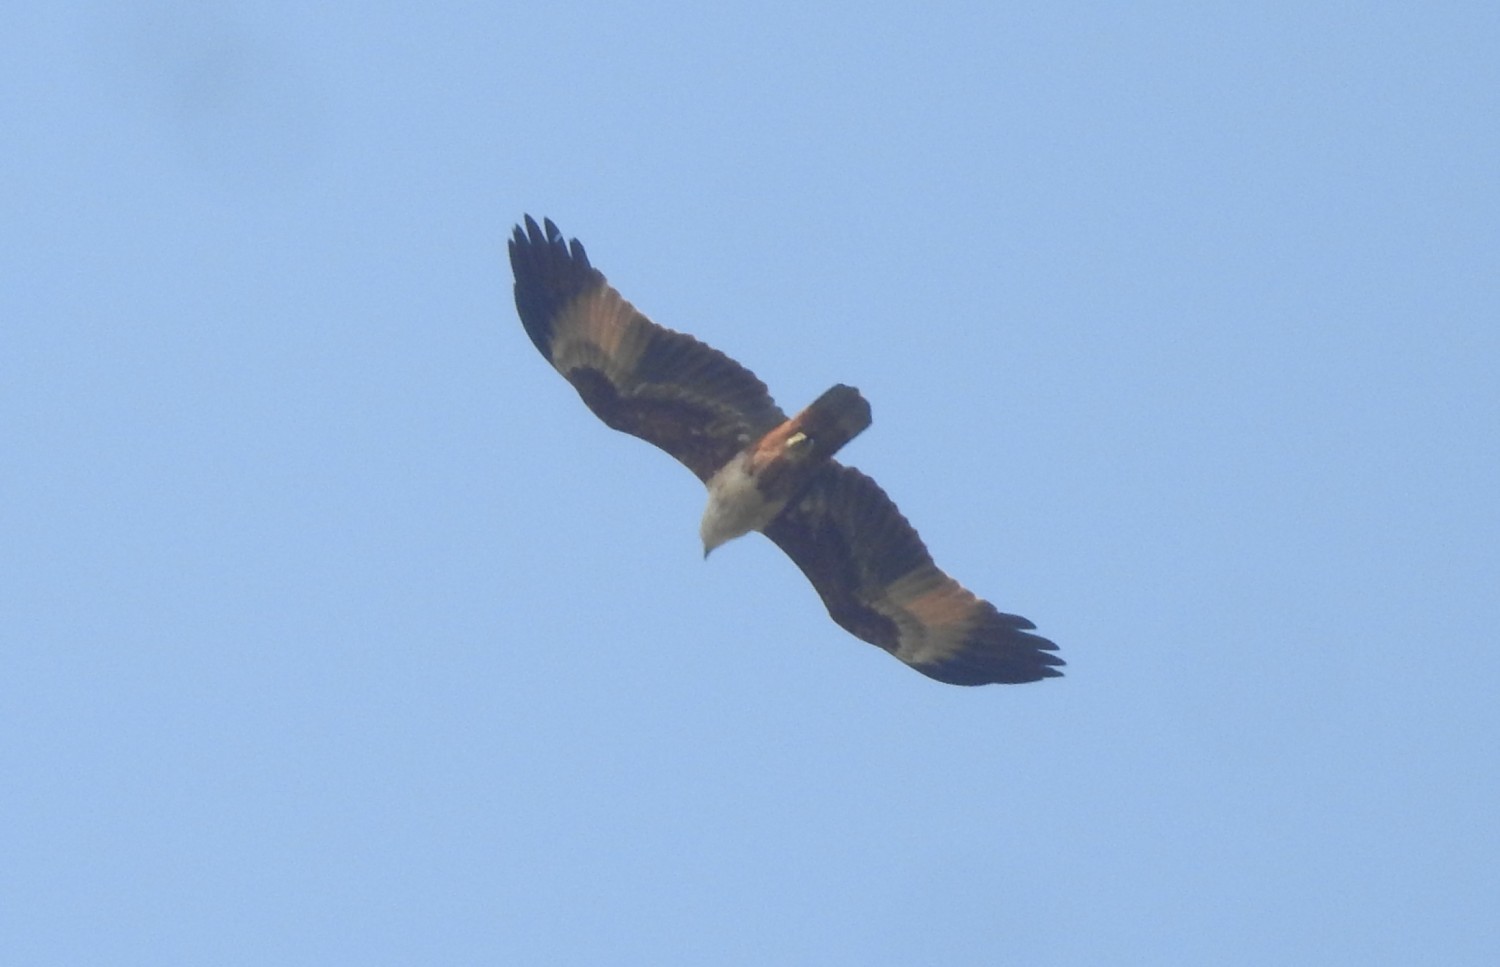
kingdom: Animalia
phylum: Chordata
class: Aves
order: Accipitriformes
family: Accipitridae
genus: Haliastur
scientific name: Haliastur indus
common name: Brahminy kite
